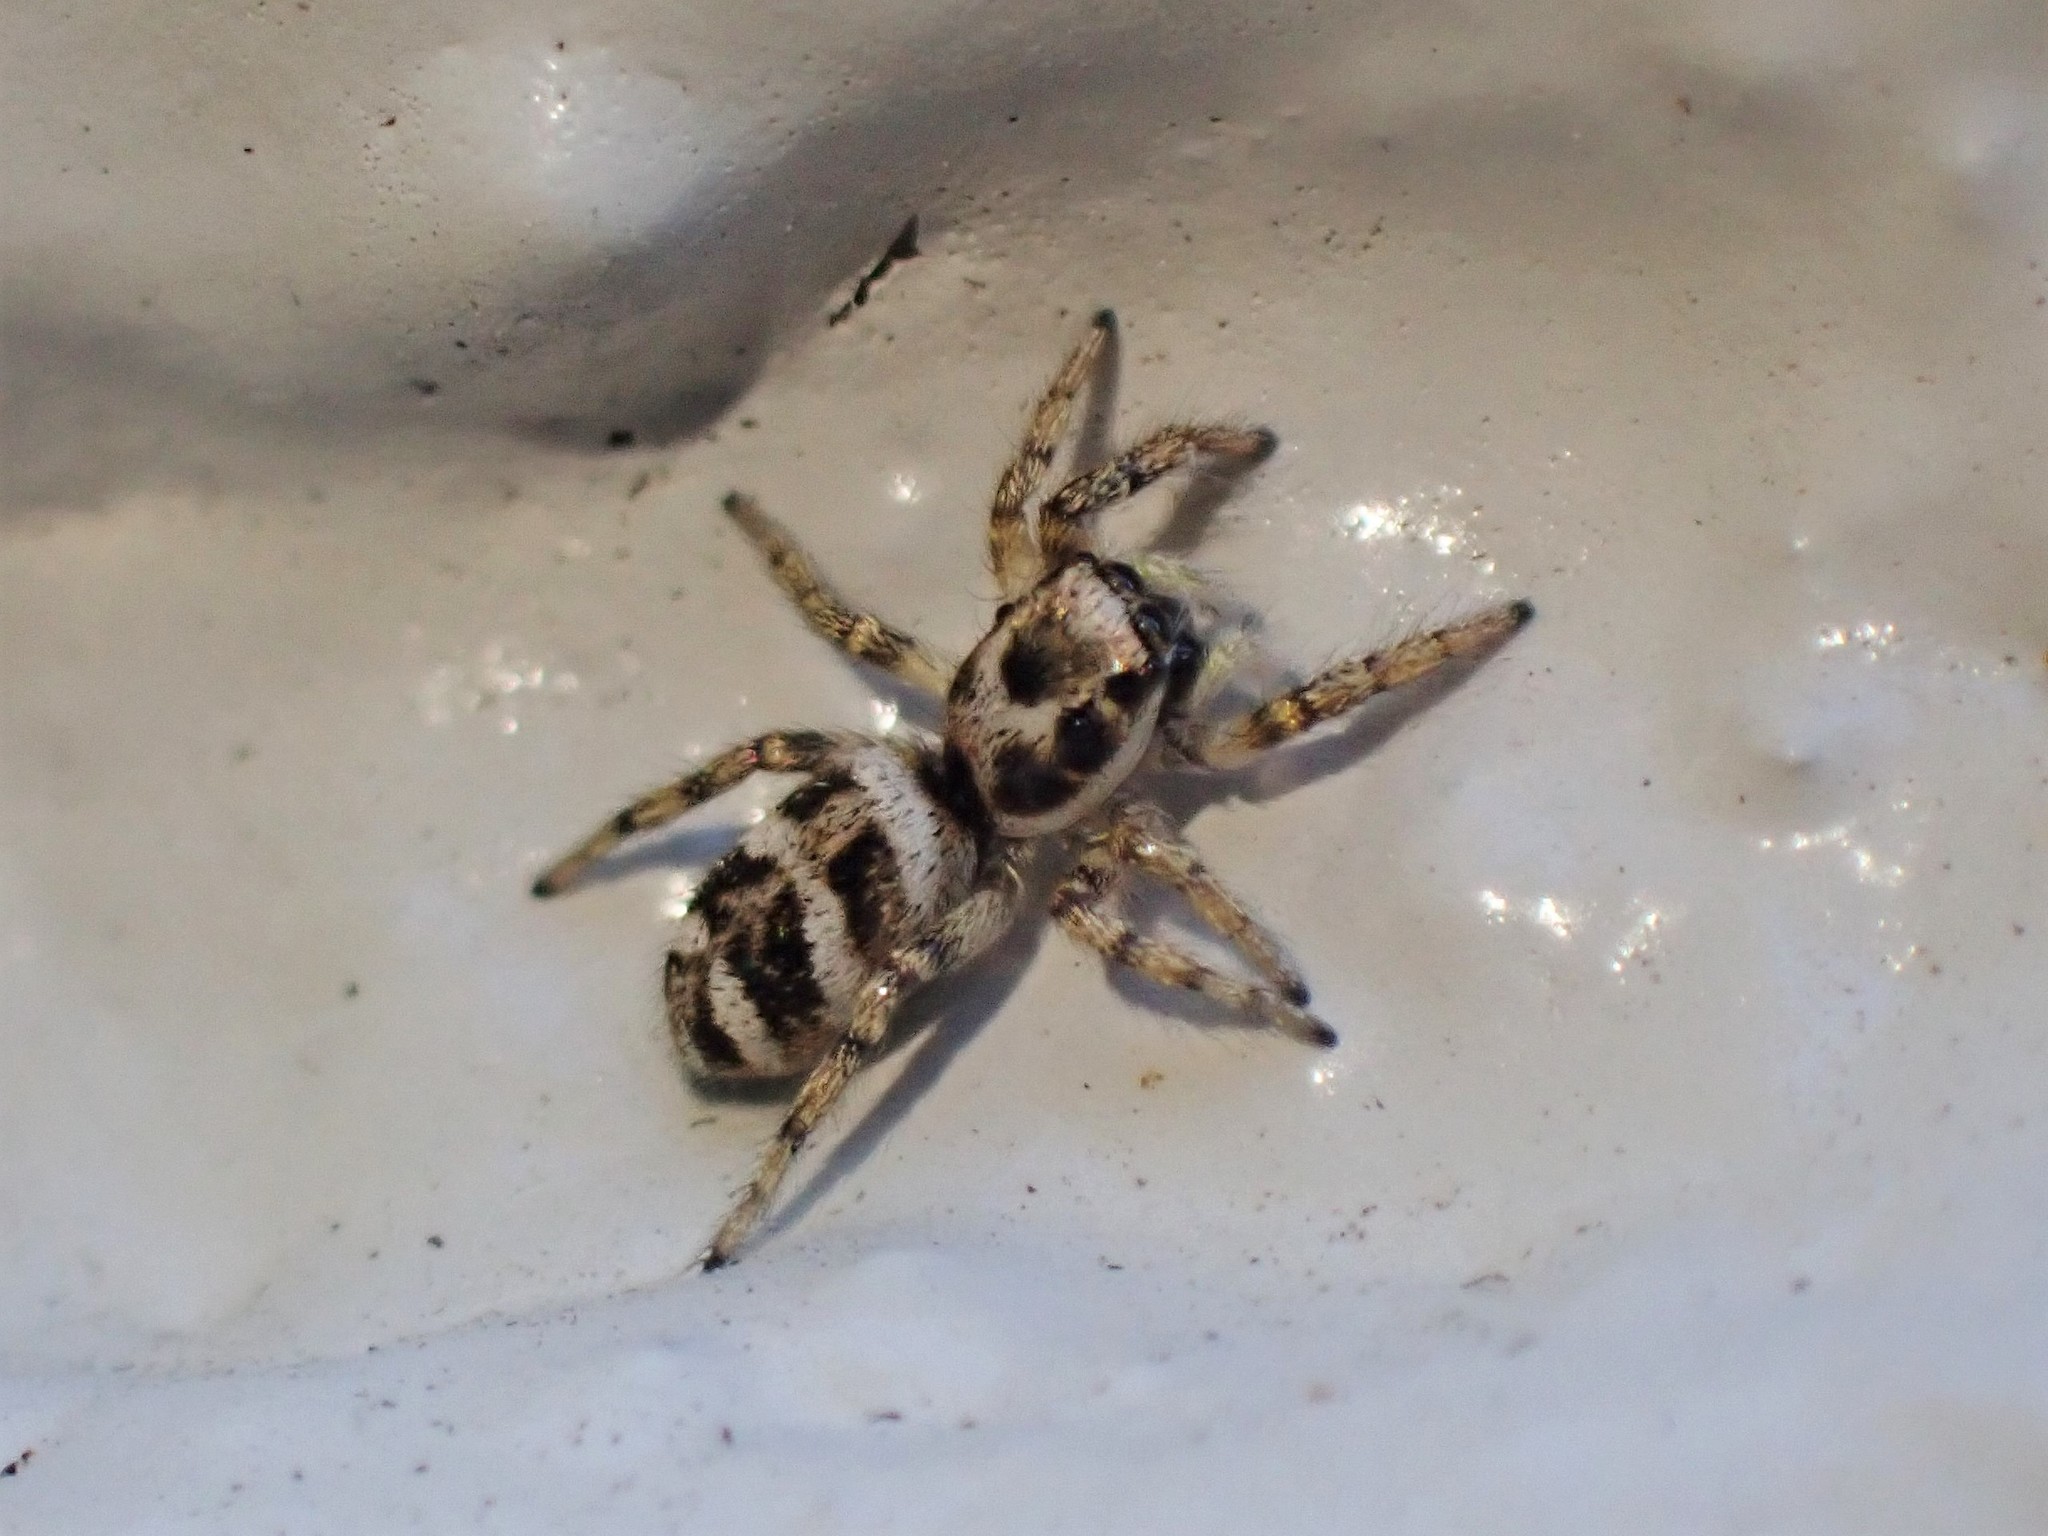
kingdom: Animalia
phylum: Arthropoda
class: Arachnida
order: Araneae
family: Salticidae
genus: Salticus
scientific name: Salticus scenicus
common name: Zebra jumper
